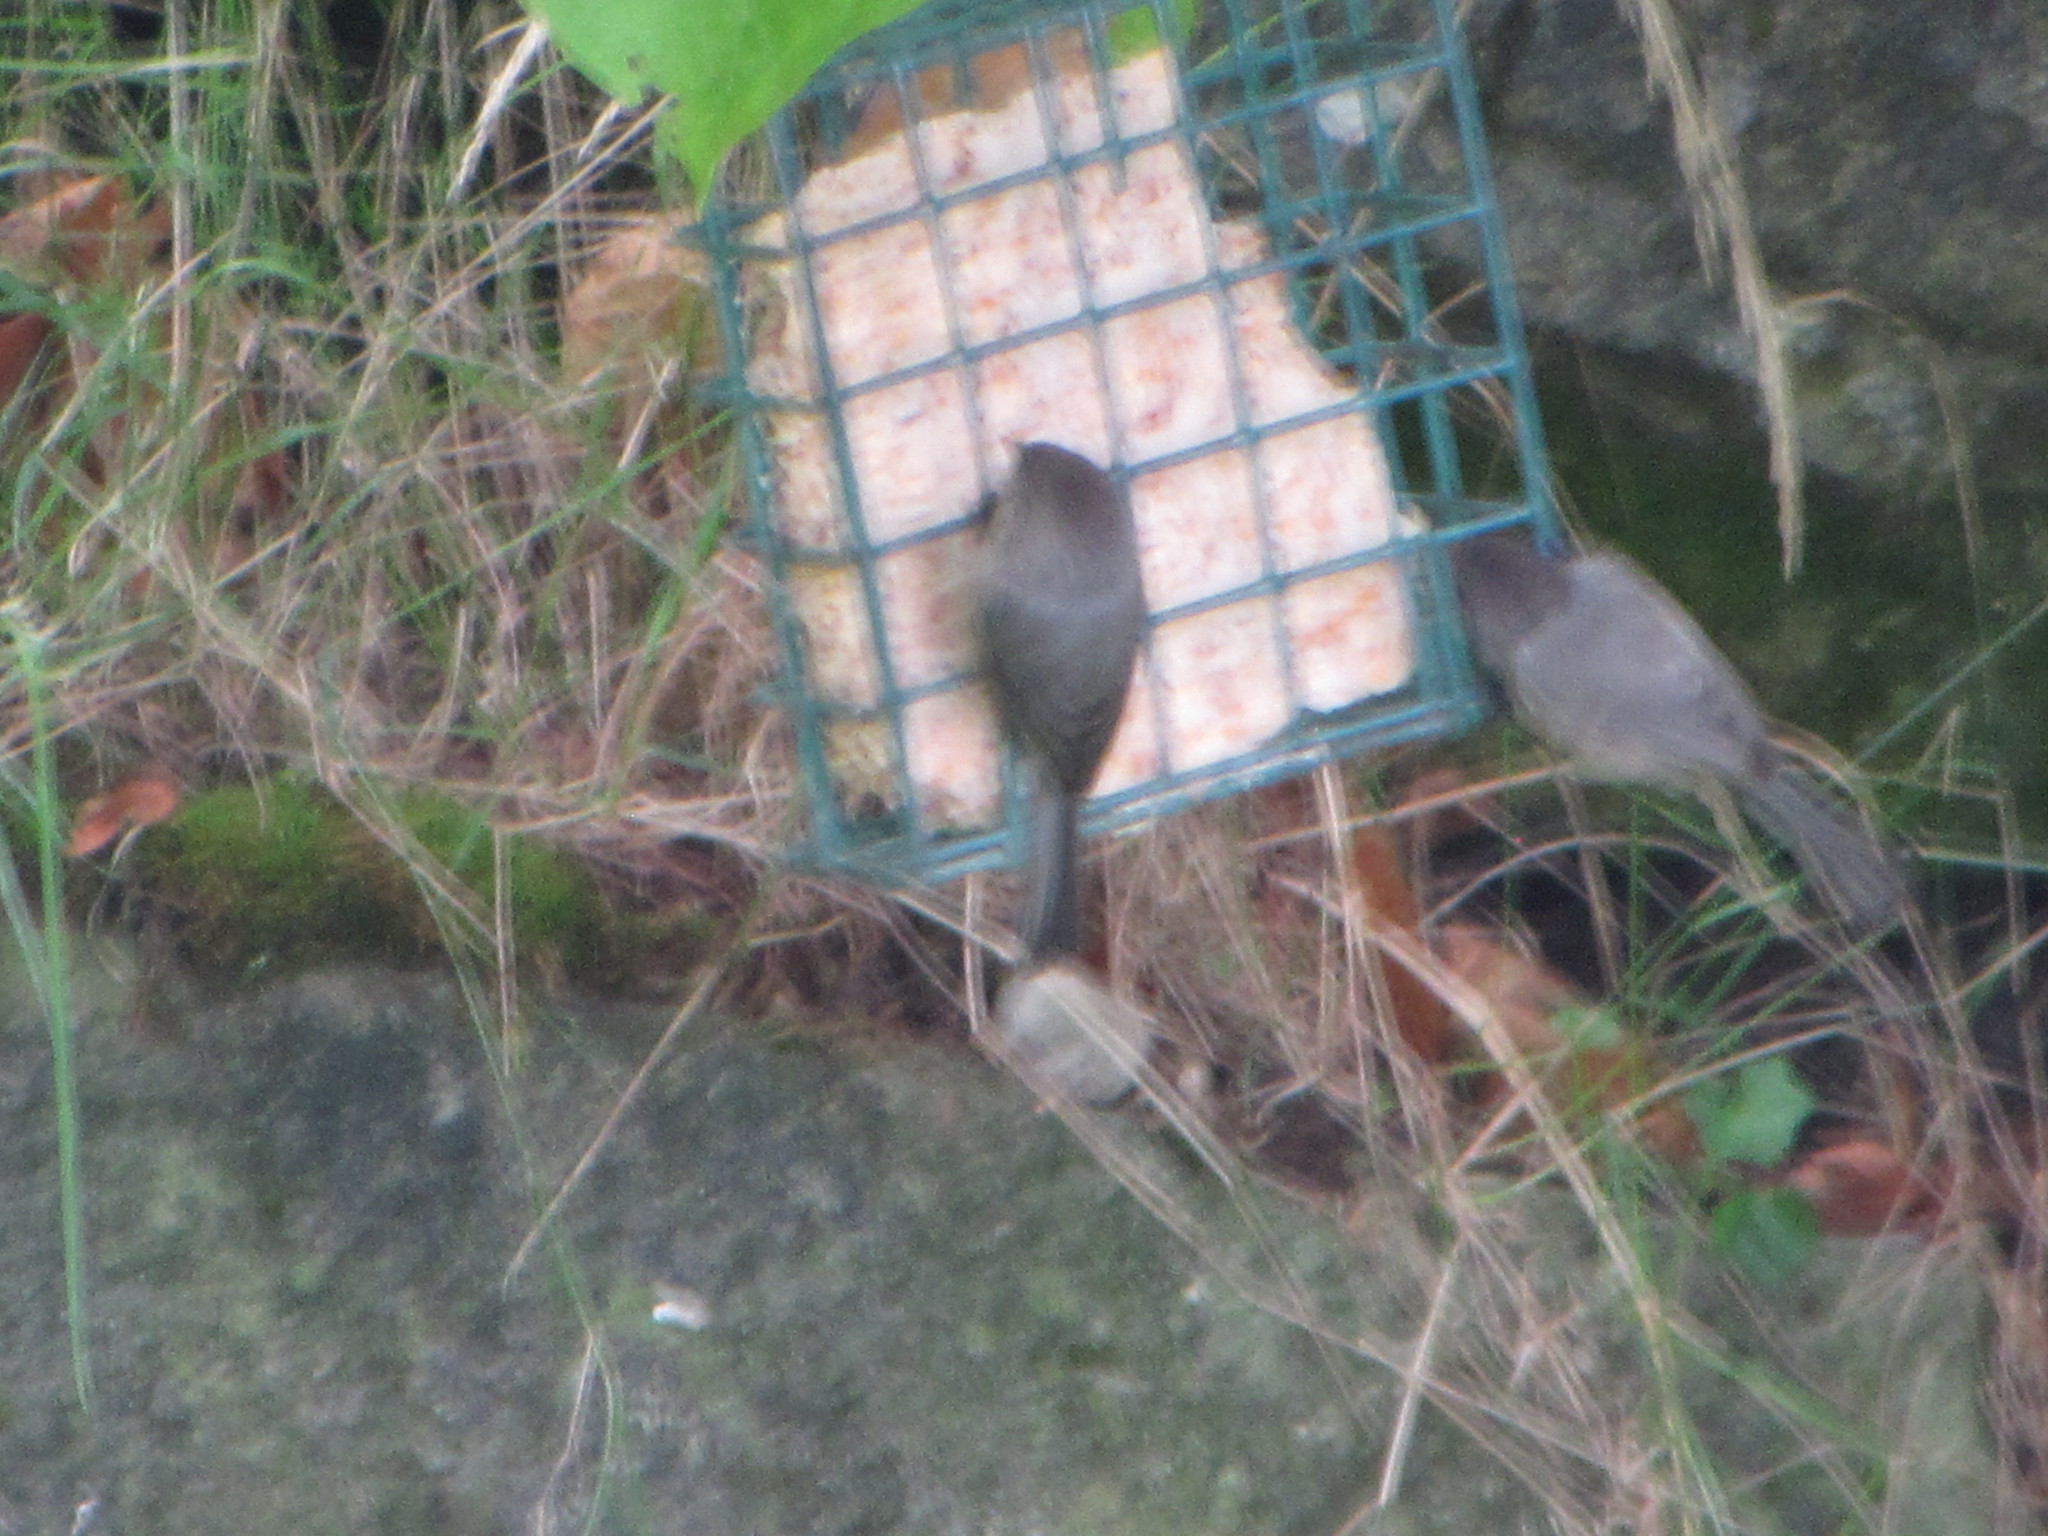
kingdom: Animalia
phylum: Chordata
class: Aves
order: Passeriformes
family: Aegithalidae
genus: Psaltriparus
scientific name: Psaltriparus minimus
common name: American bushtit
